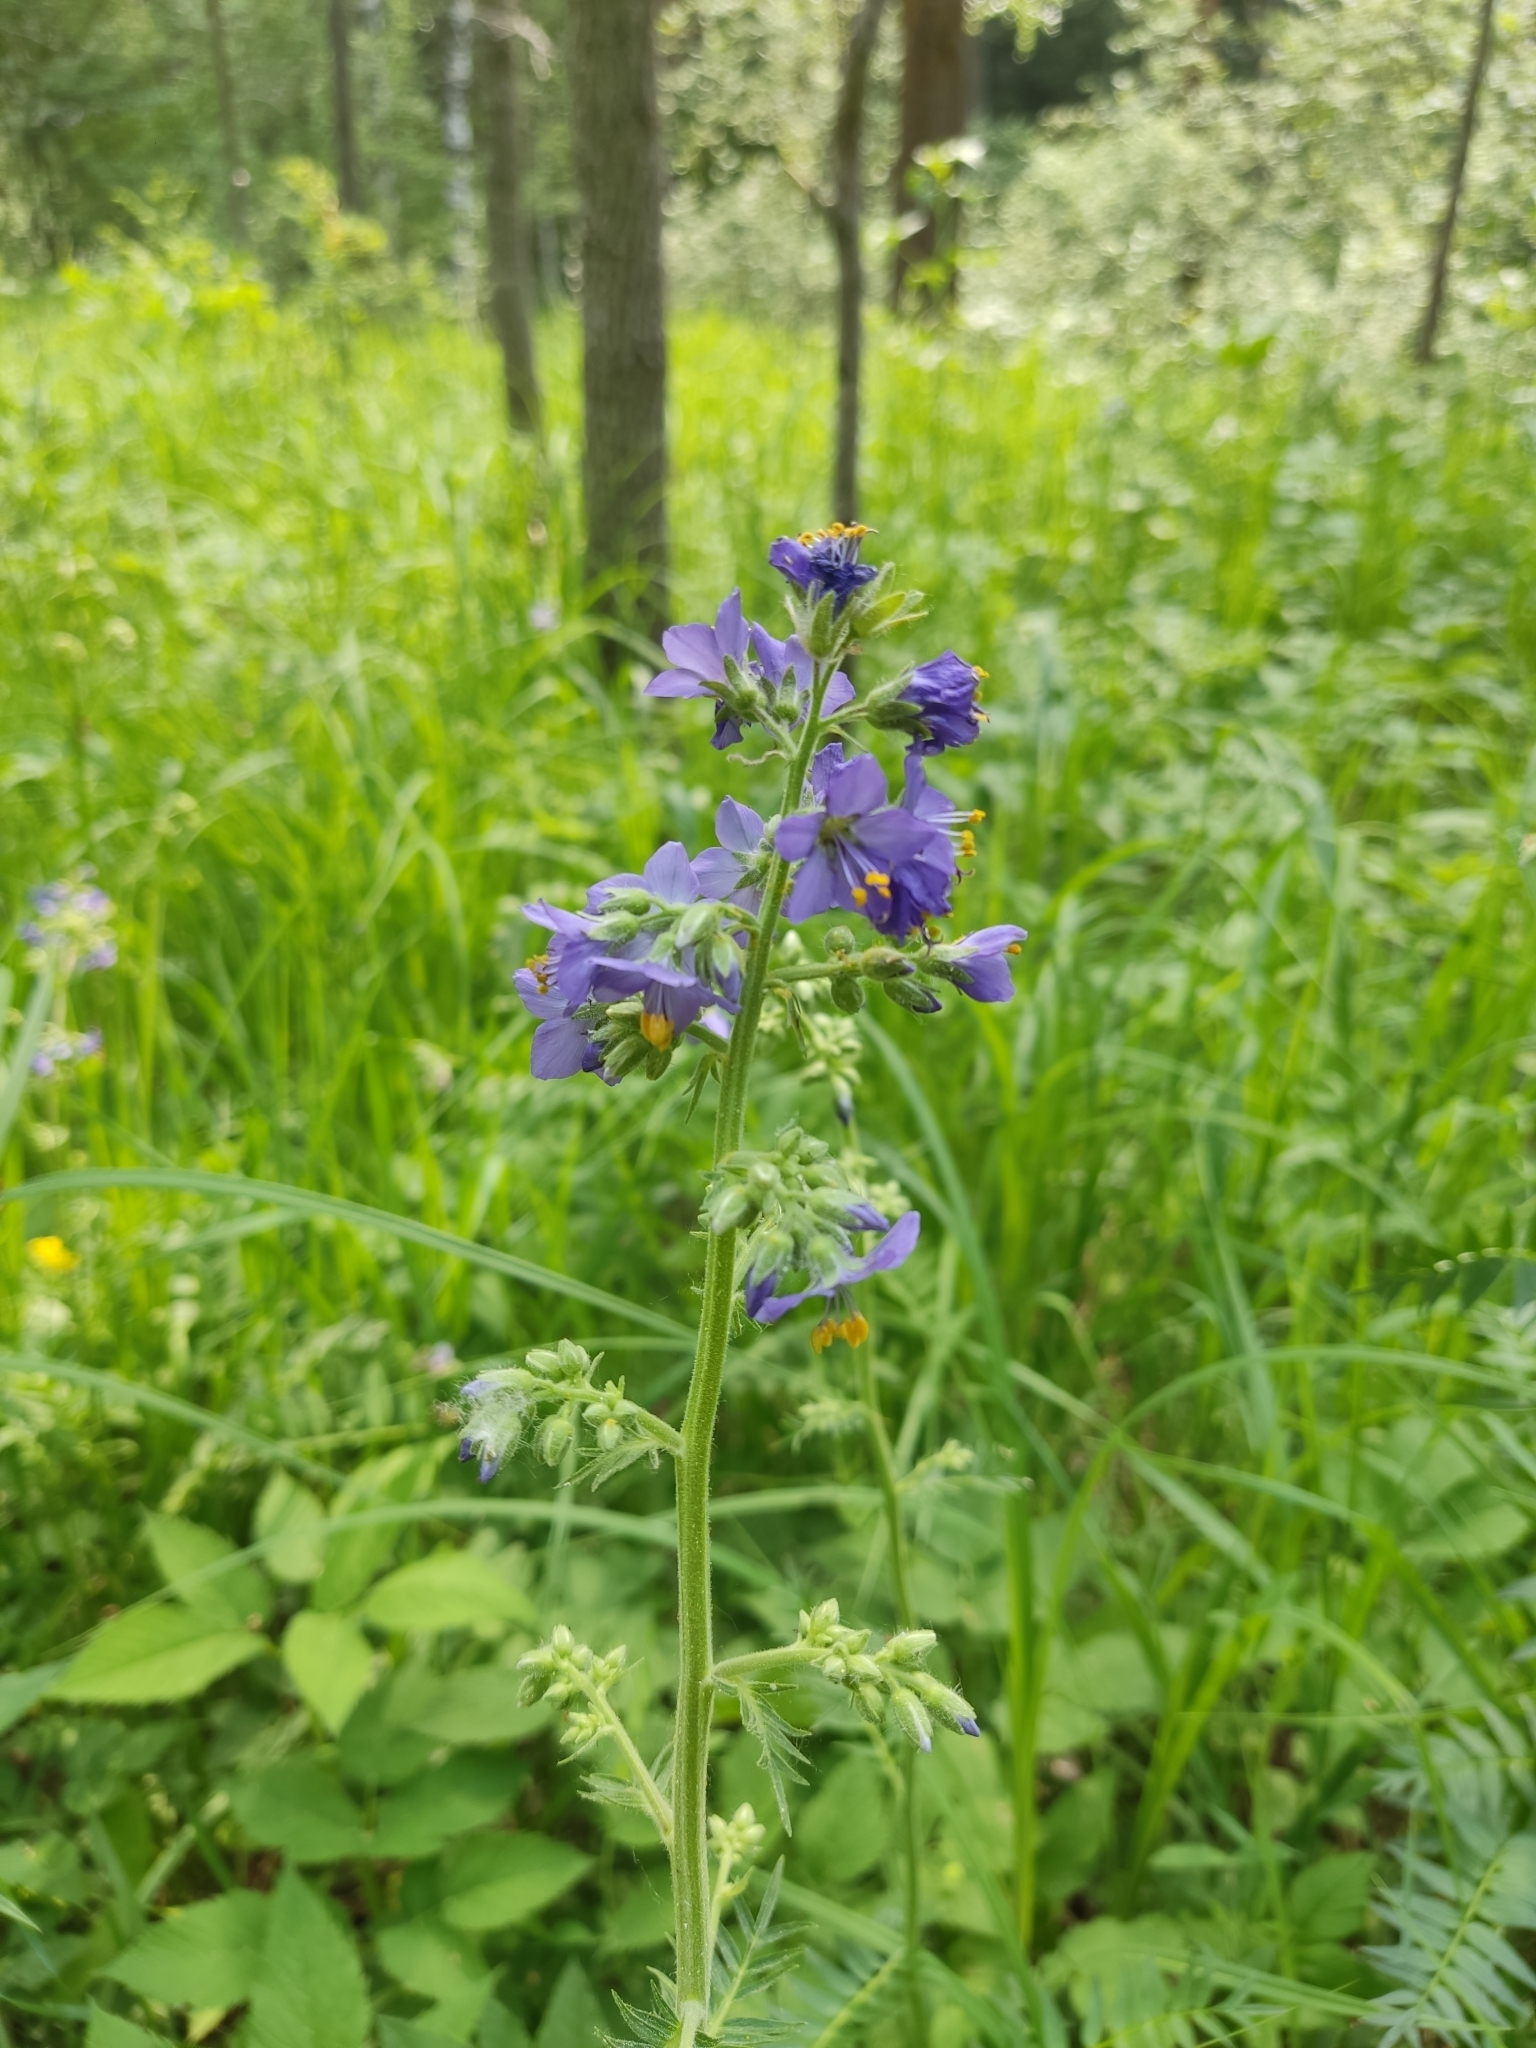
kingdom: Plantae
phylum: Tracheophyta
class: Magnoliopsida
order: Ericales
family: Polemoniaceae
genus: Polemonium
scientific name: Polemonium caeruleum
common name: Jacob's-ladder
